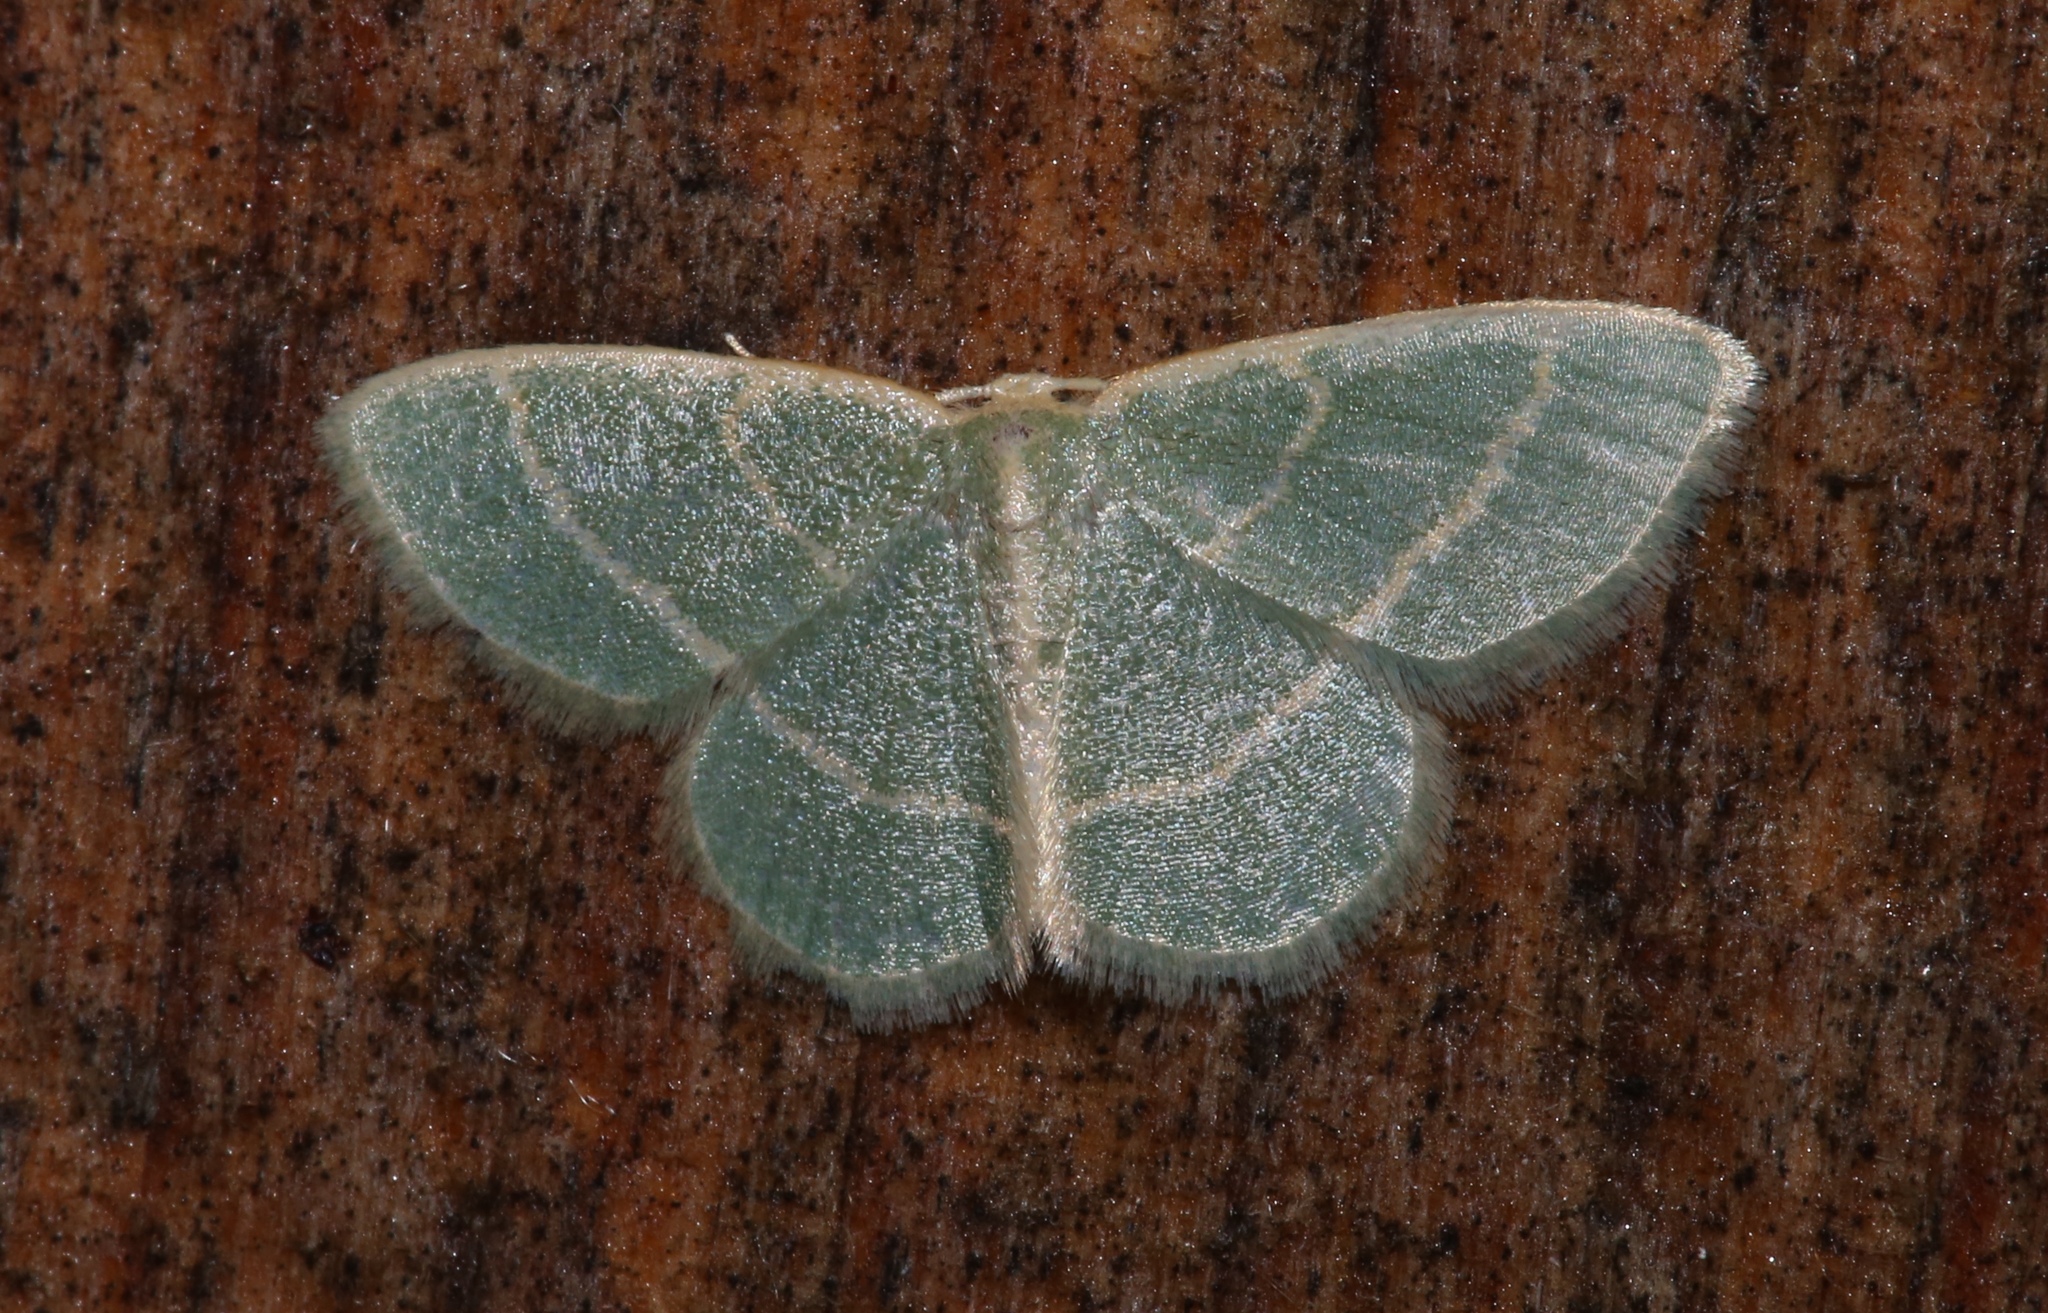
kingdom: Animalia
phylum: Arthropoda
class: Insecta
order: Lepidoptera
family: Geometridae
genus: Chlorochlamys
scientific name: Chlorochlamys chloroleucaria
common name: Blackberry looper
